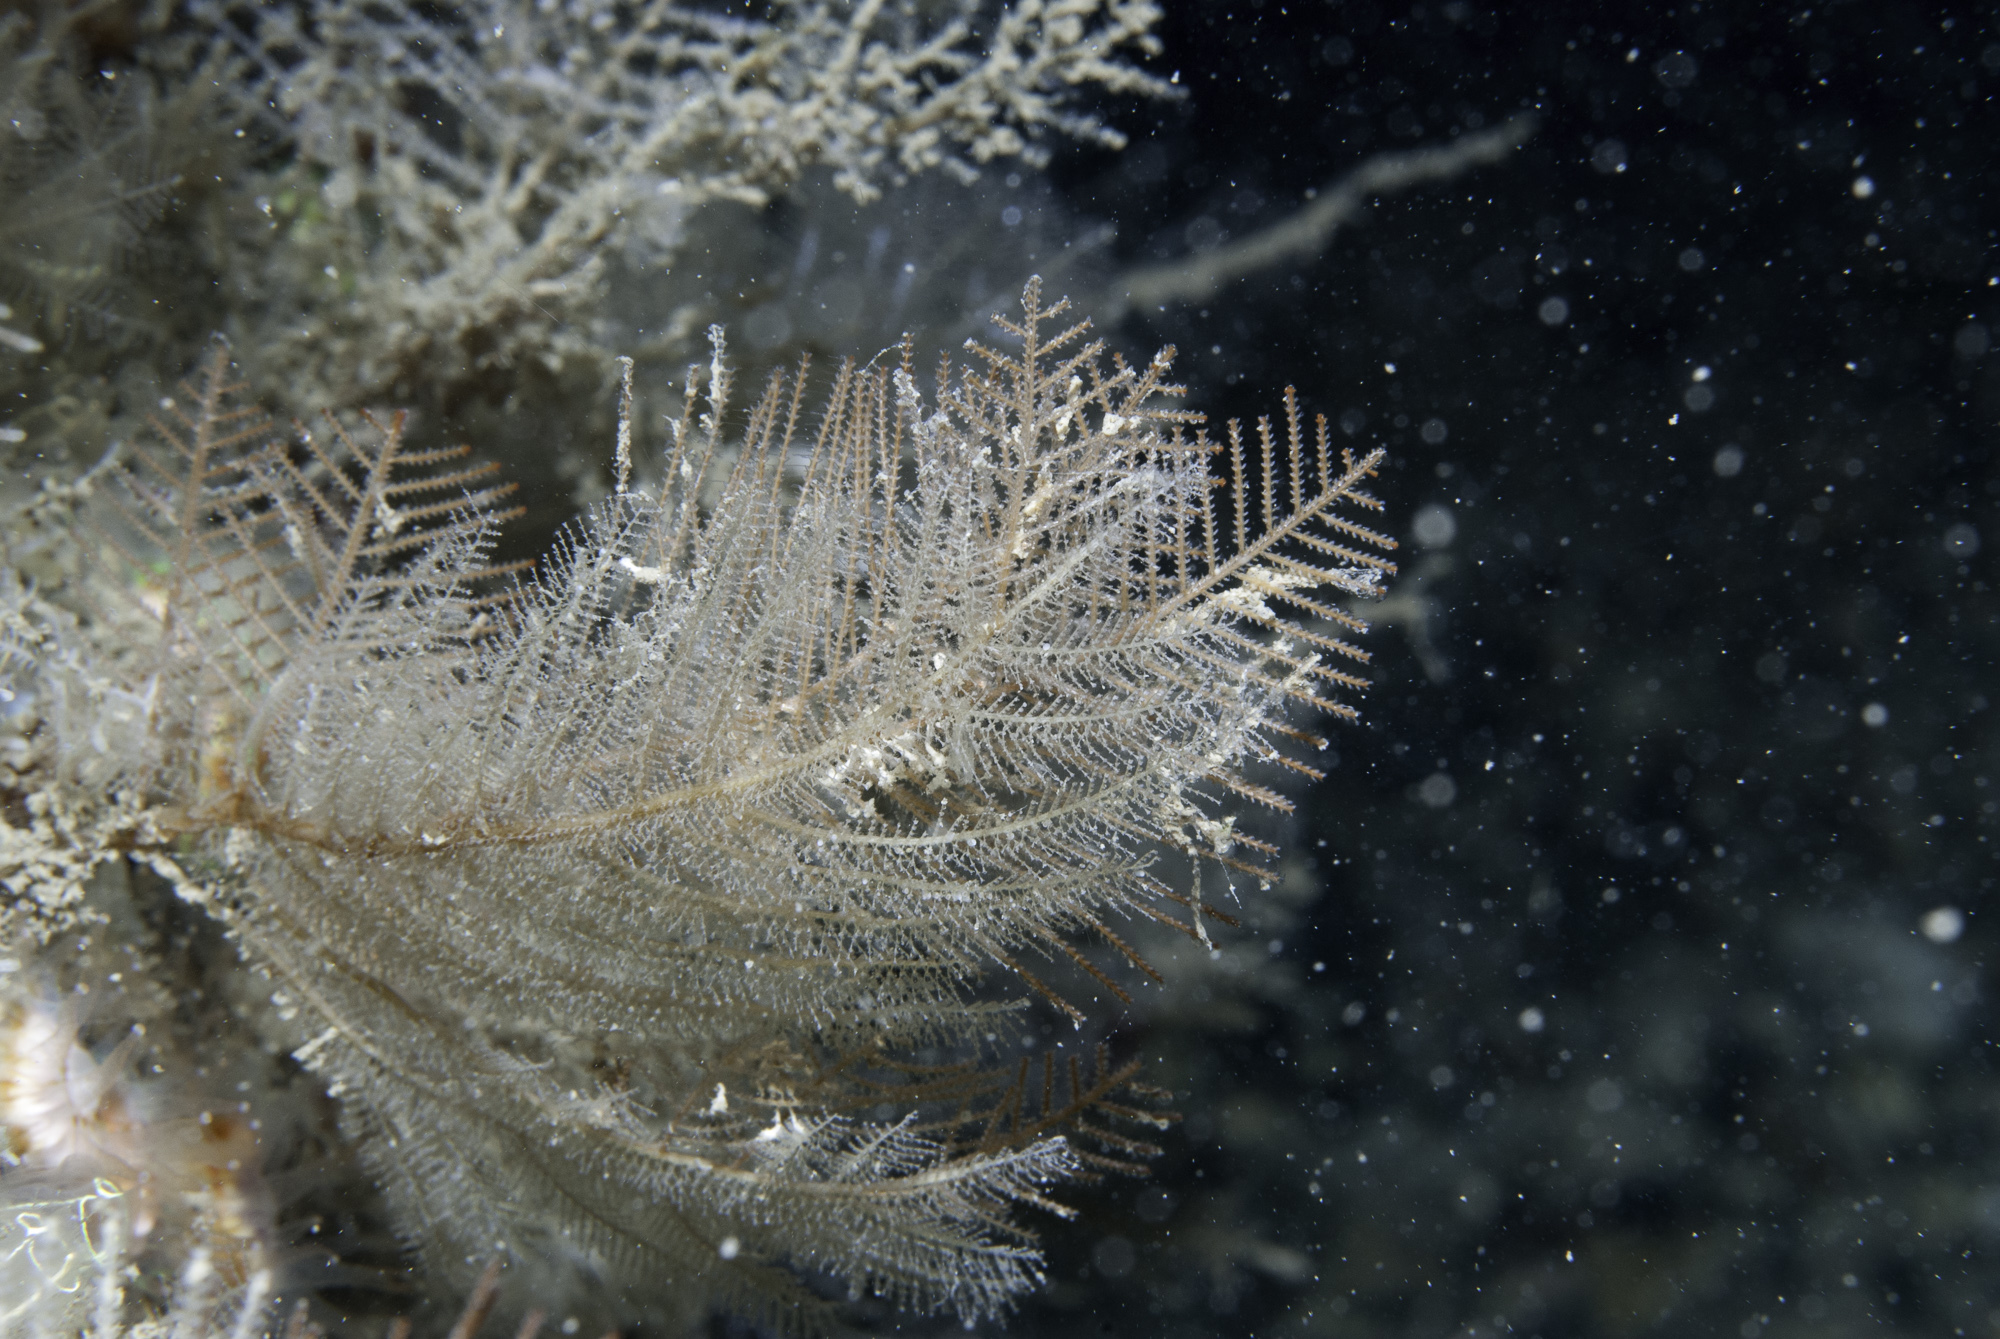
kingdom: Animalia
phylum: Cnidaria
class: Hydrozoa
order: Leptothecata
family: Halopterididae
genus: Polyplumaria
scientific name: Polyplumaria flabellata
